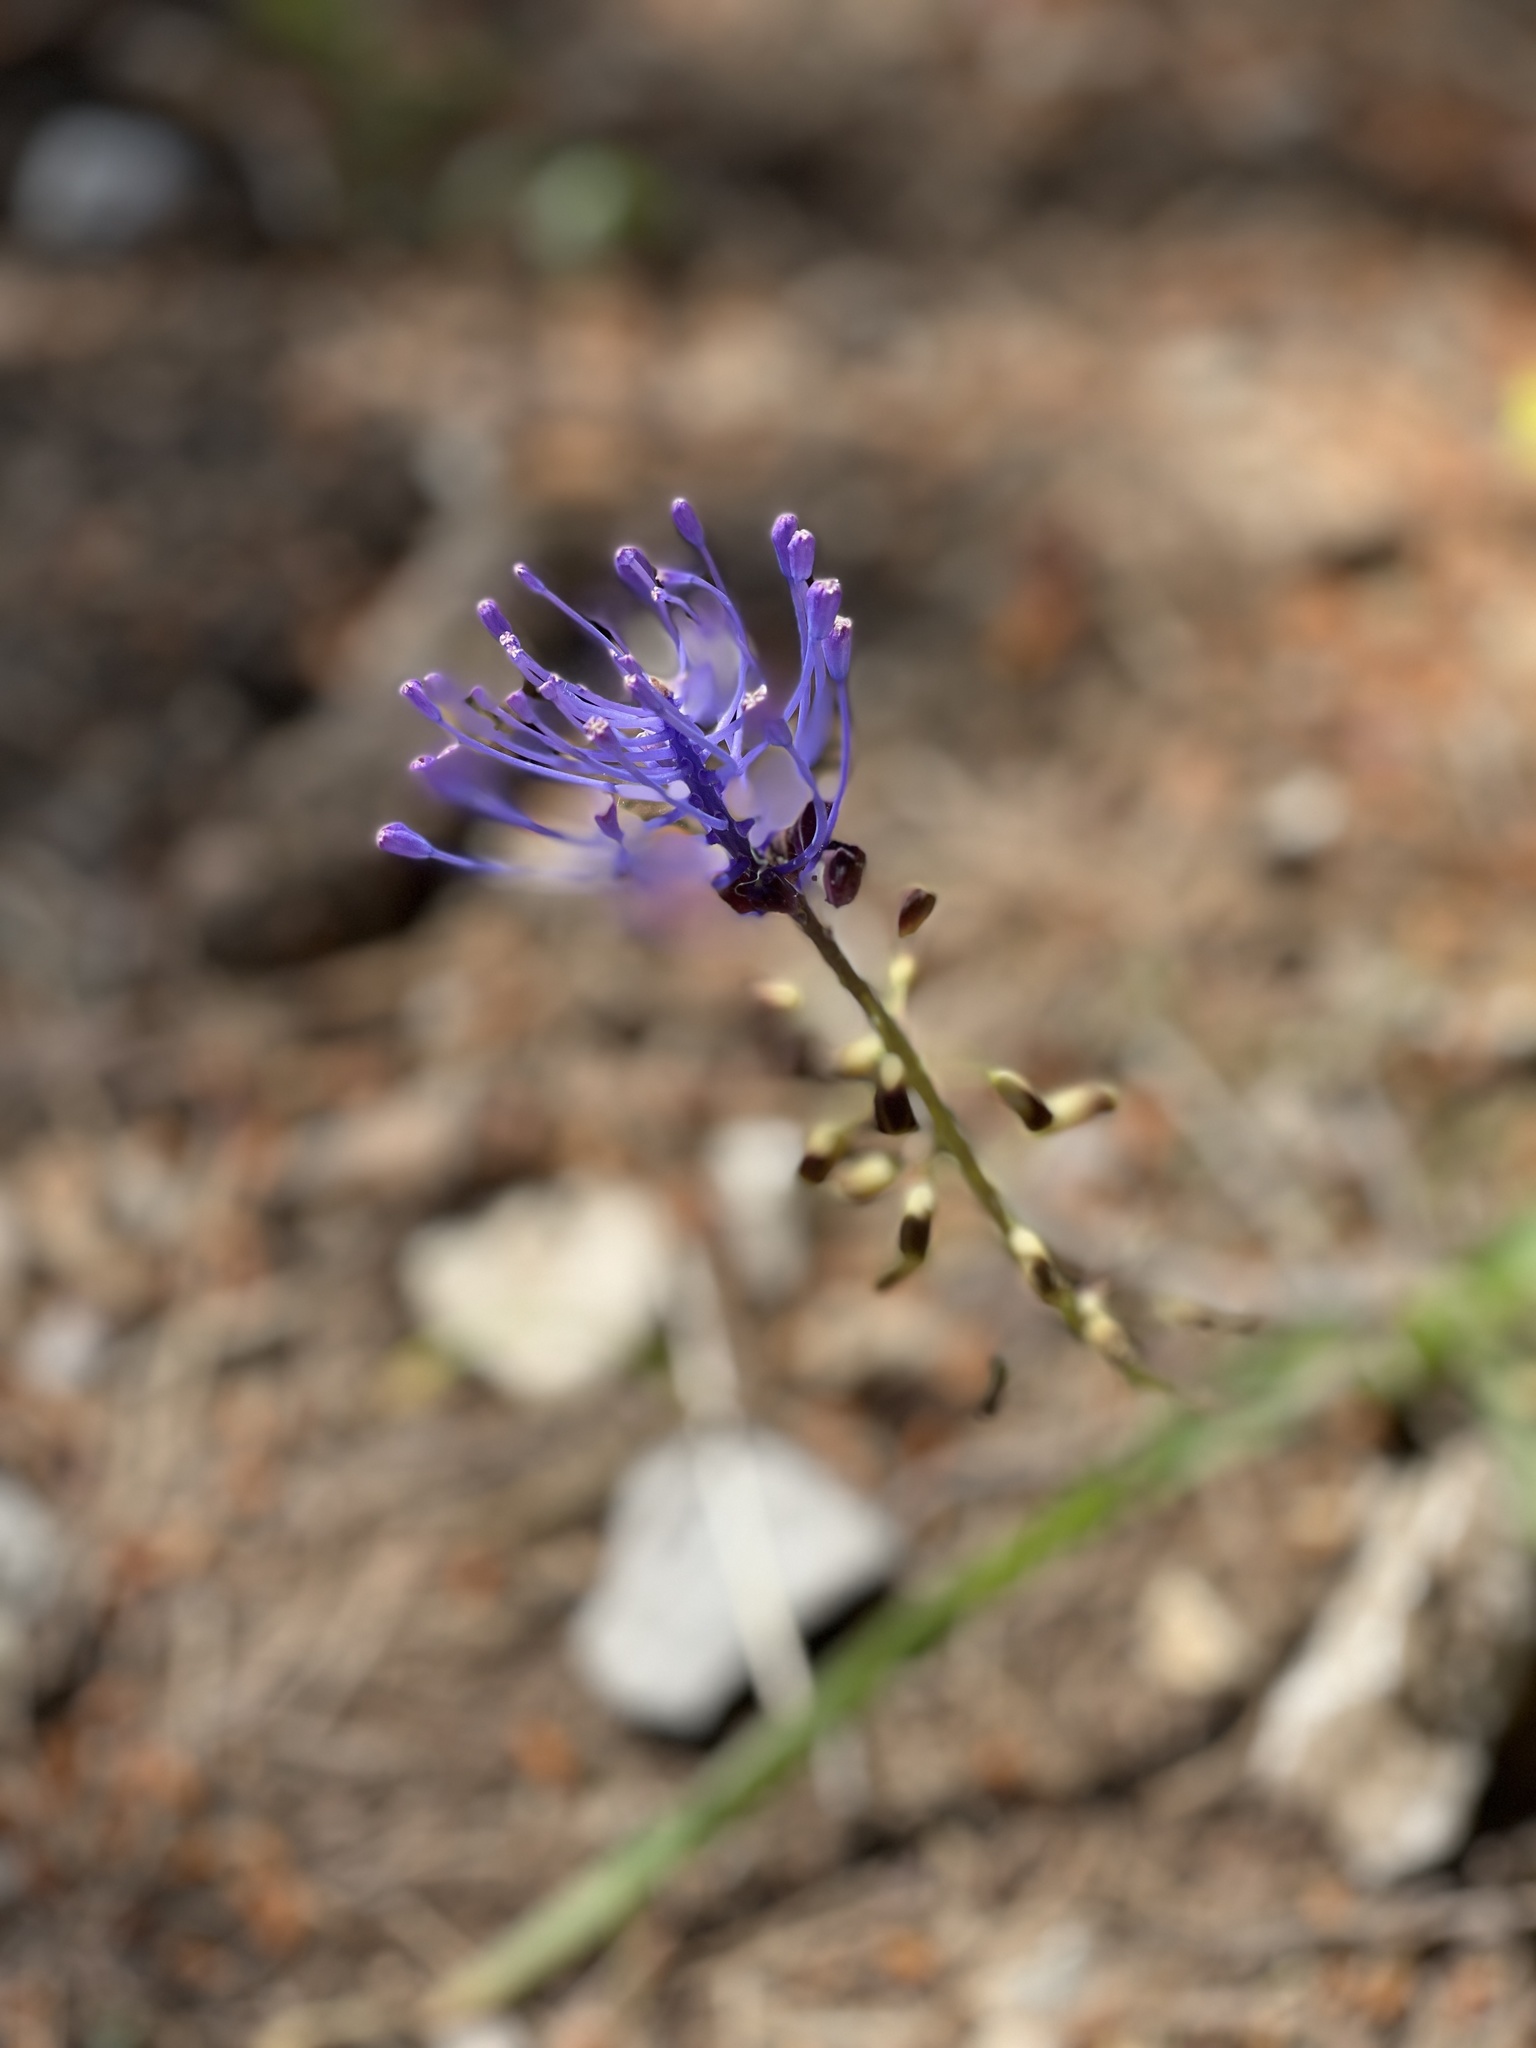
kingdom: Plantae
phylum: Tracheophyta
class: Liliopsida
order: Asparagales
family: Asparagaceae
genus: Muscari
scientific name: Muscari comosum
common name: Tassel hyacinth
